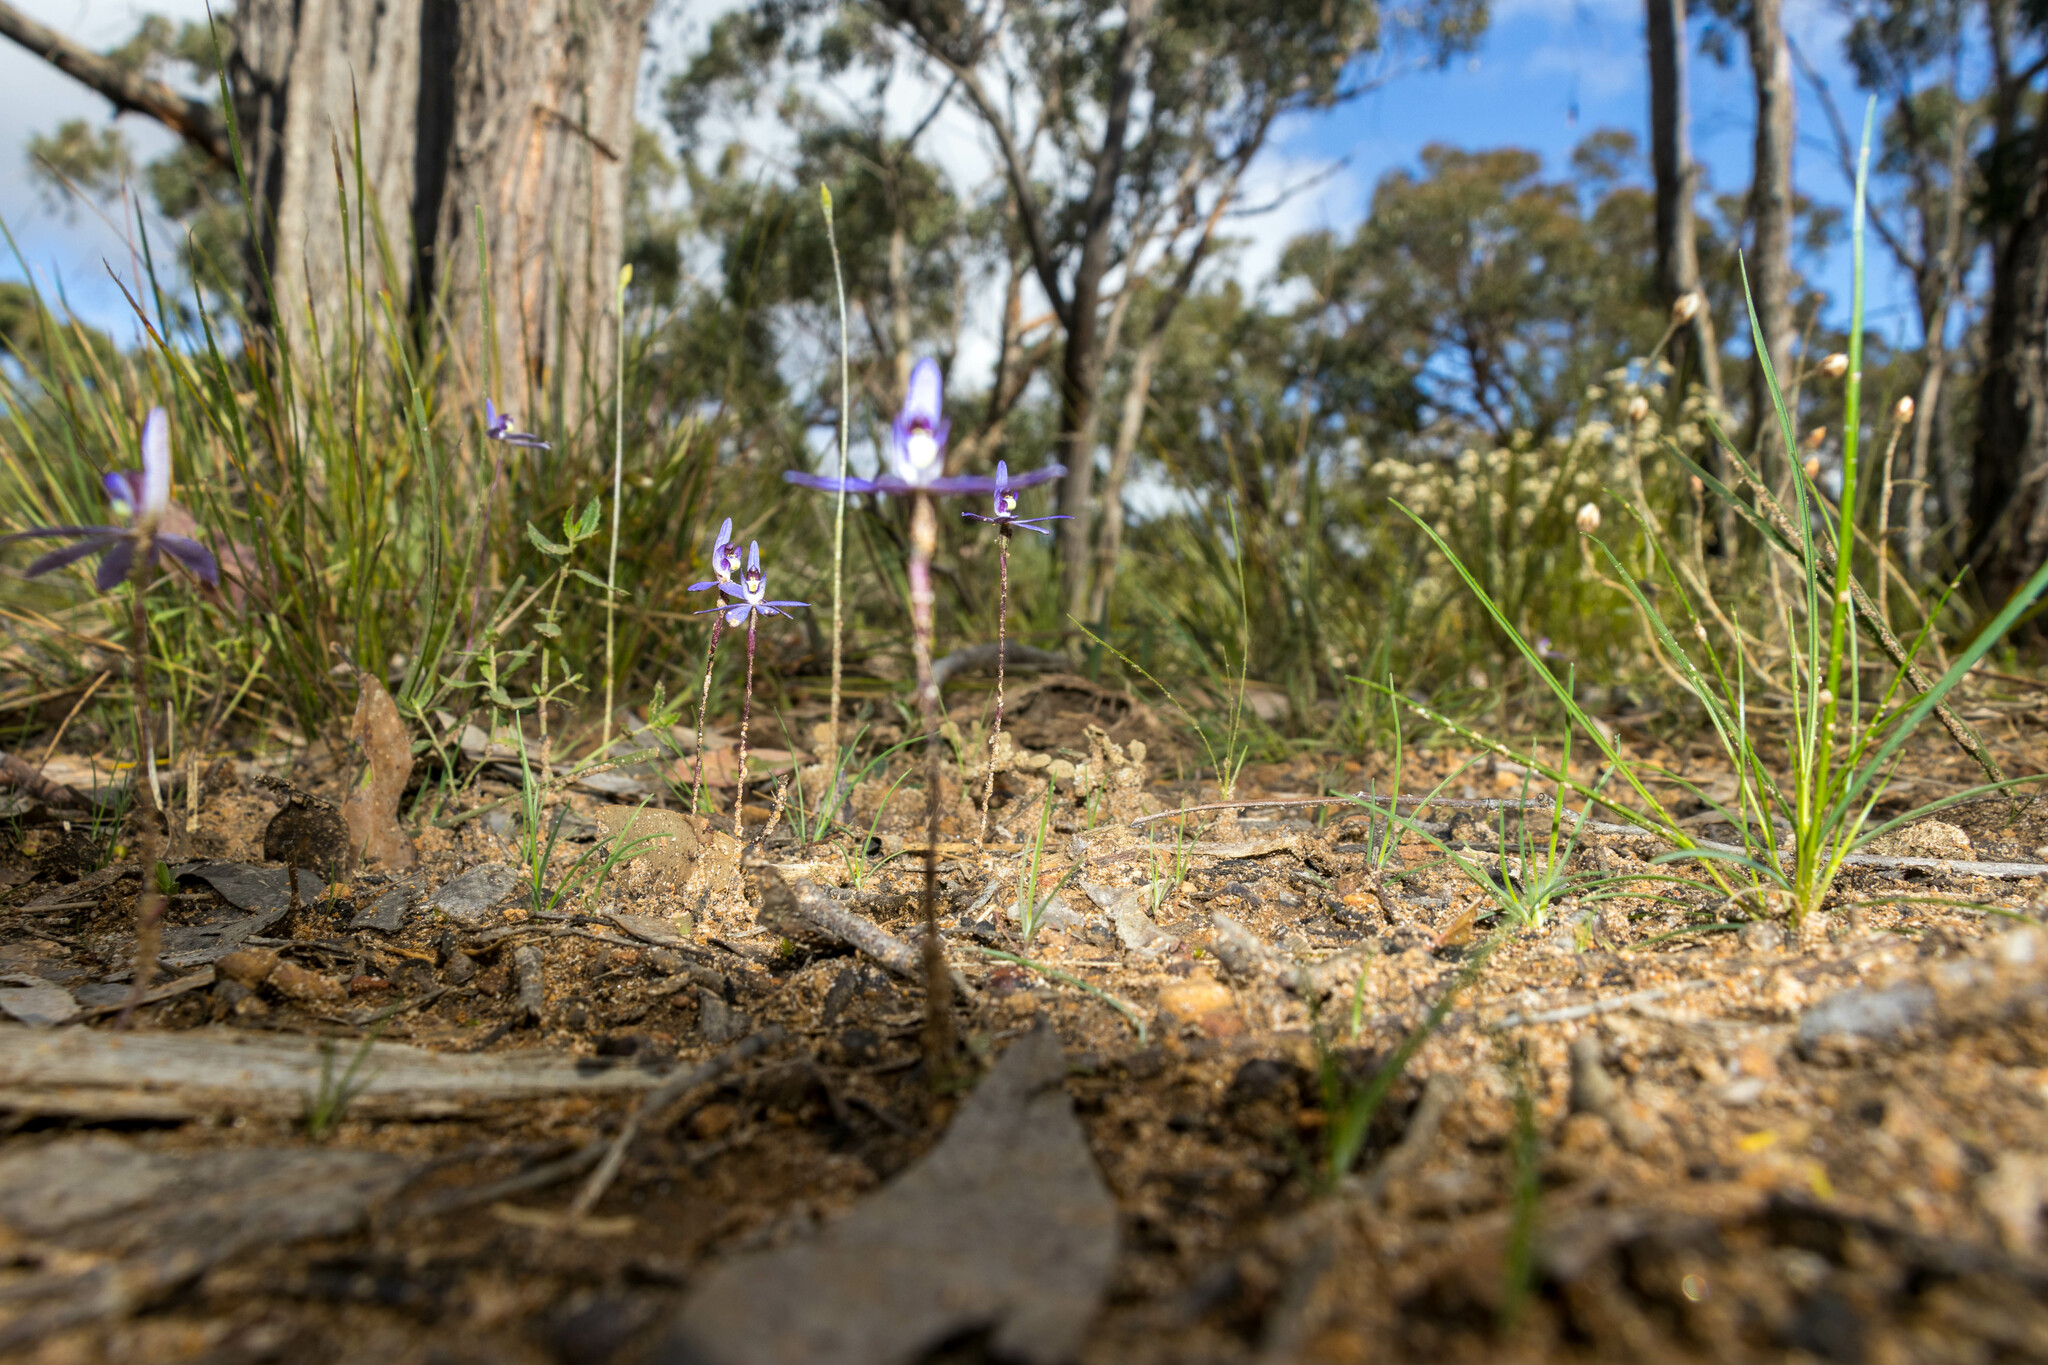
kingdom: Plantae
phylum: Tracheophyta
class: Liliopsida
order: Asparagales
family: Orchidaceae
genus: Caladenia
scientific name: Caladenia caerulea
